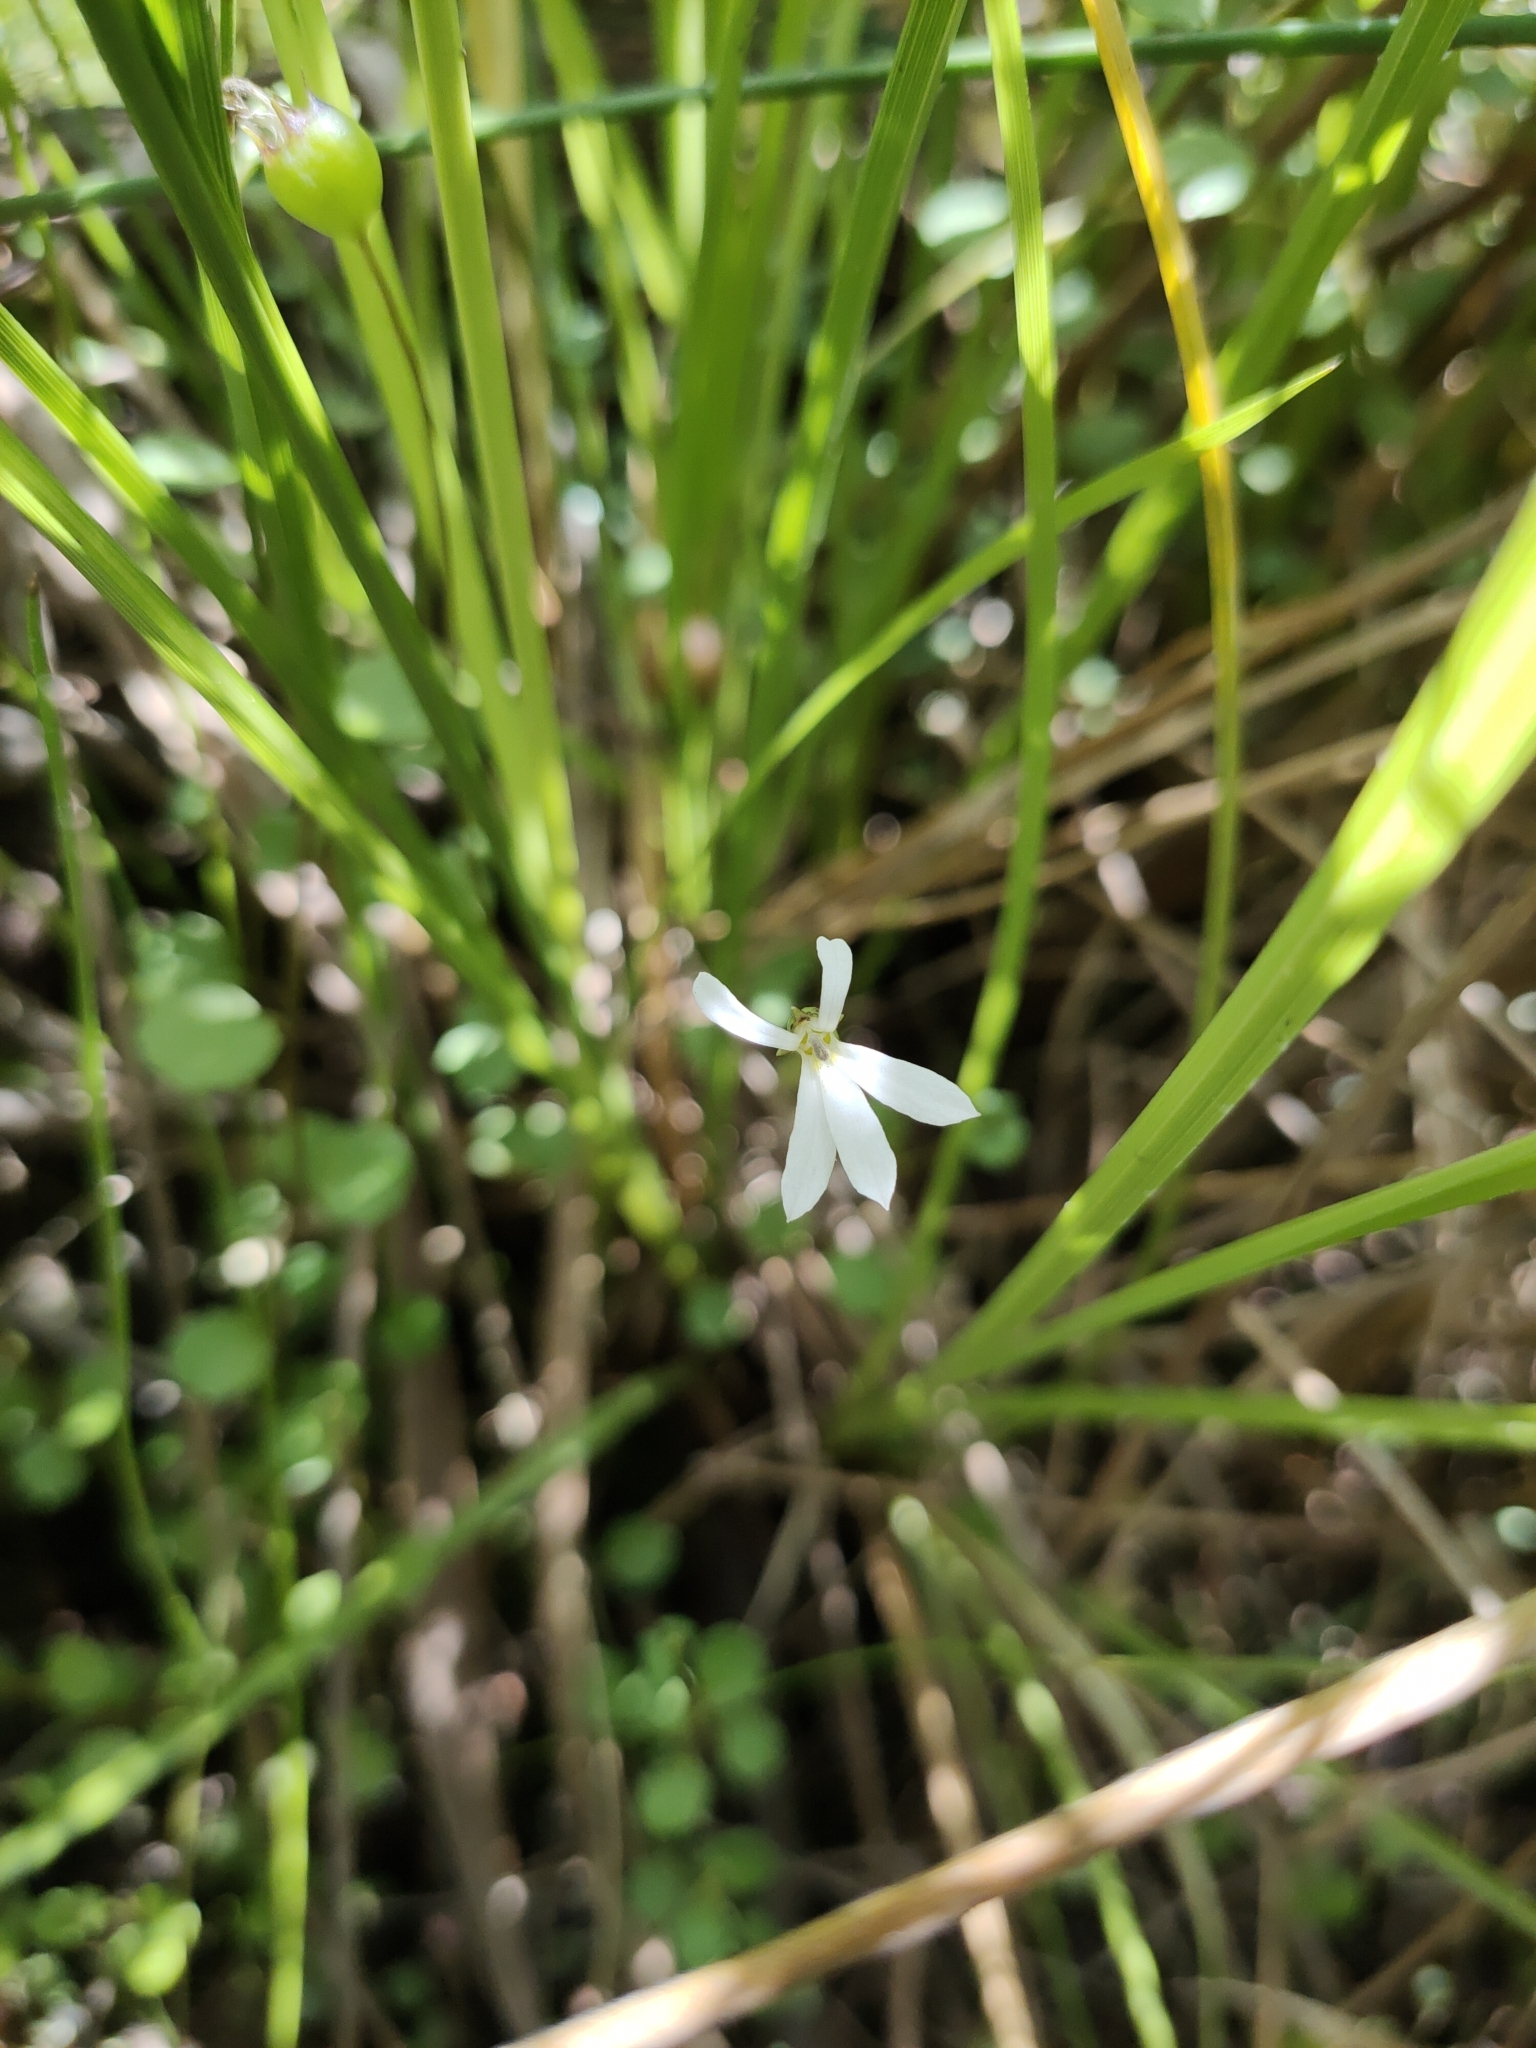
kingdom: Plantae
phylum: Tracheophyta
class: Magnoliopsida
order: Asterales
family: Campanulaceae
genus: Lobelia
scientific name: Lobelia angulata
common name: Lawn lobelia
